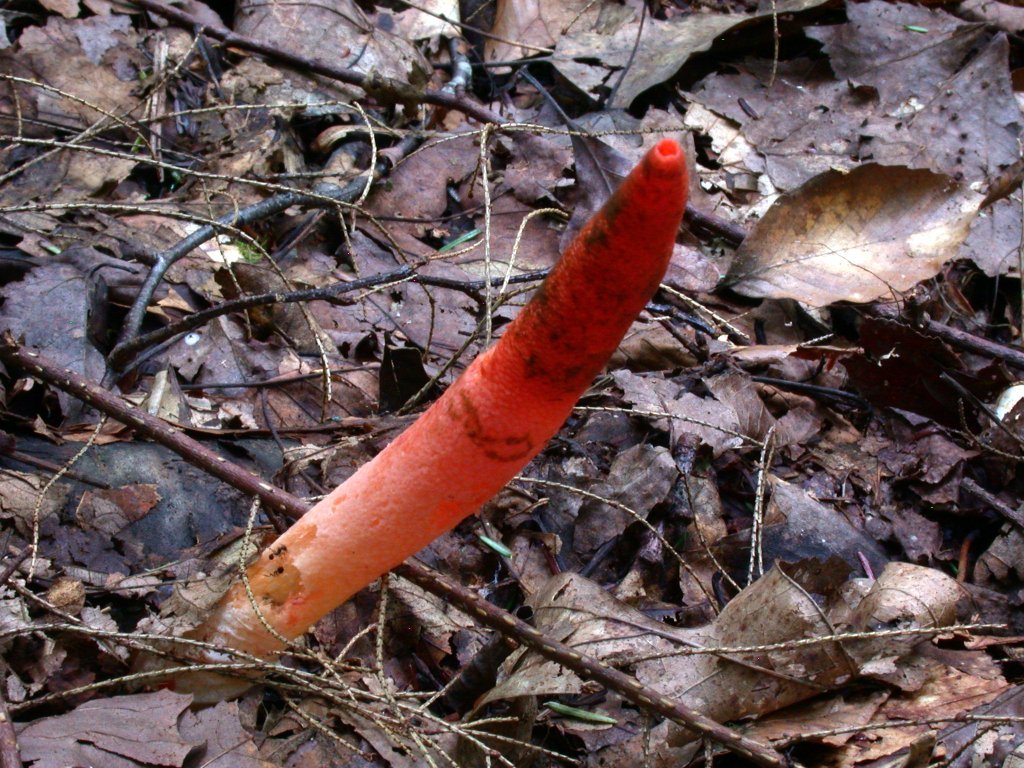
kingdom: Fungi
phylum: Basidiomycota
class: Agaricomycetes
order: Phallales
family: Phallaceae
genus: Mutinus
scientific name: Mutinus elegans
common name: Devil's dipstick
